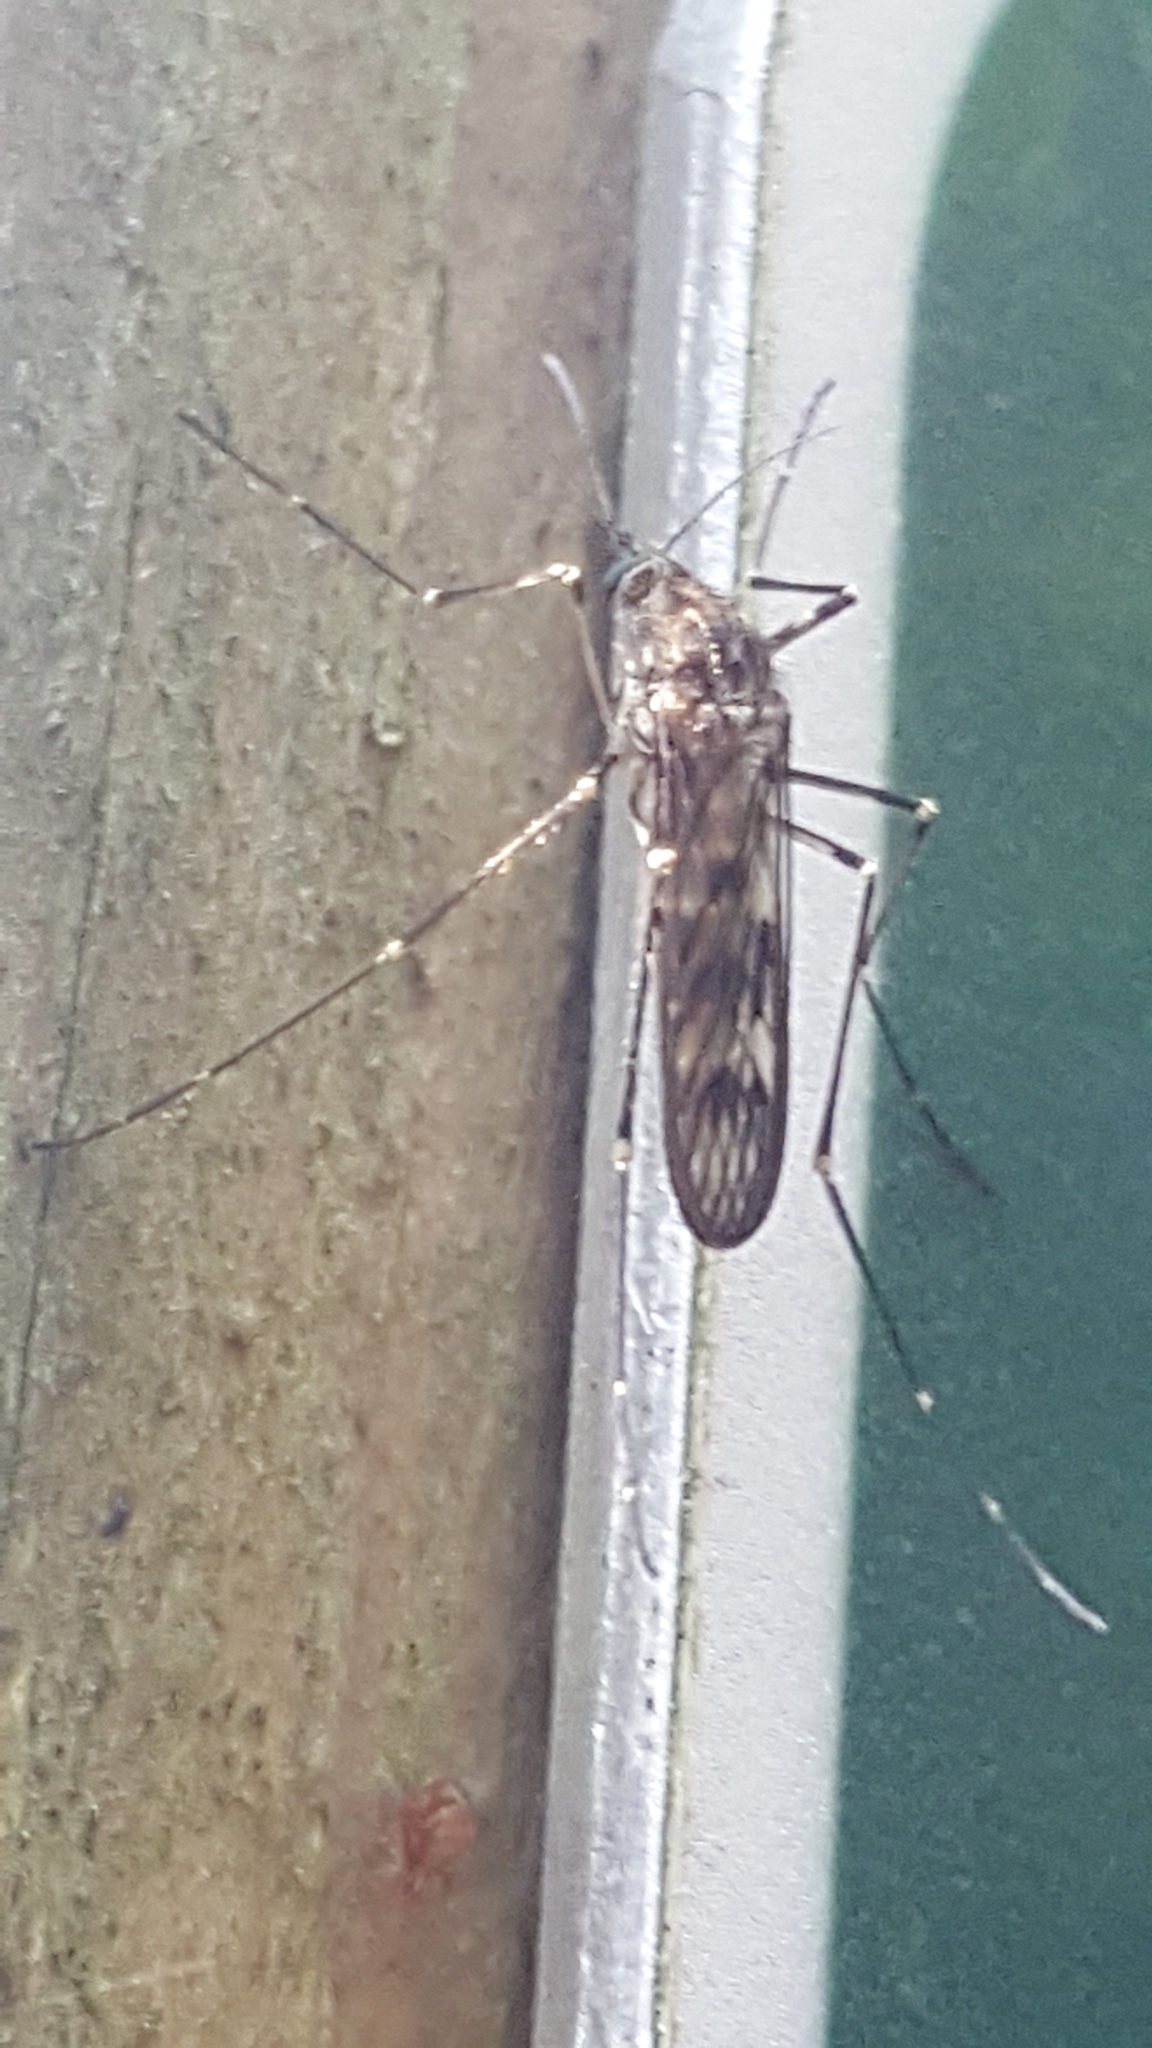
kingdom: Animalia
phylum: Arthropoda
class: Insecta
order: Diptera
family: Culicidae
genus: Culiseta
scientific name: Culiseta incidens
